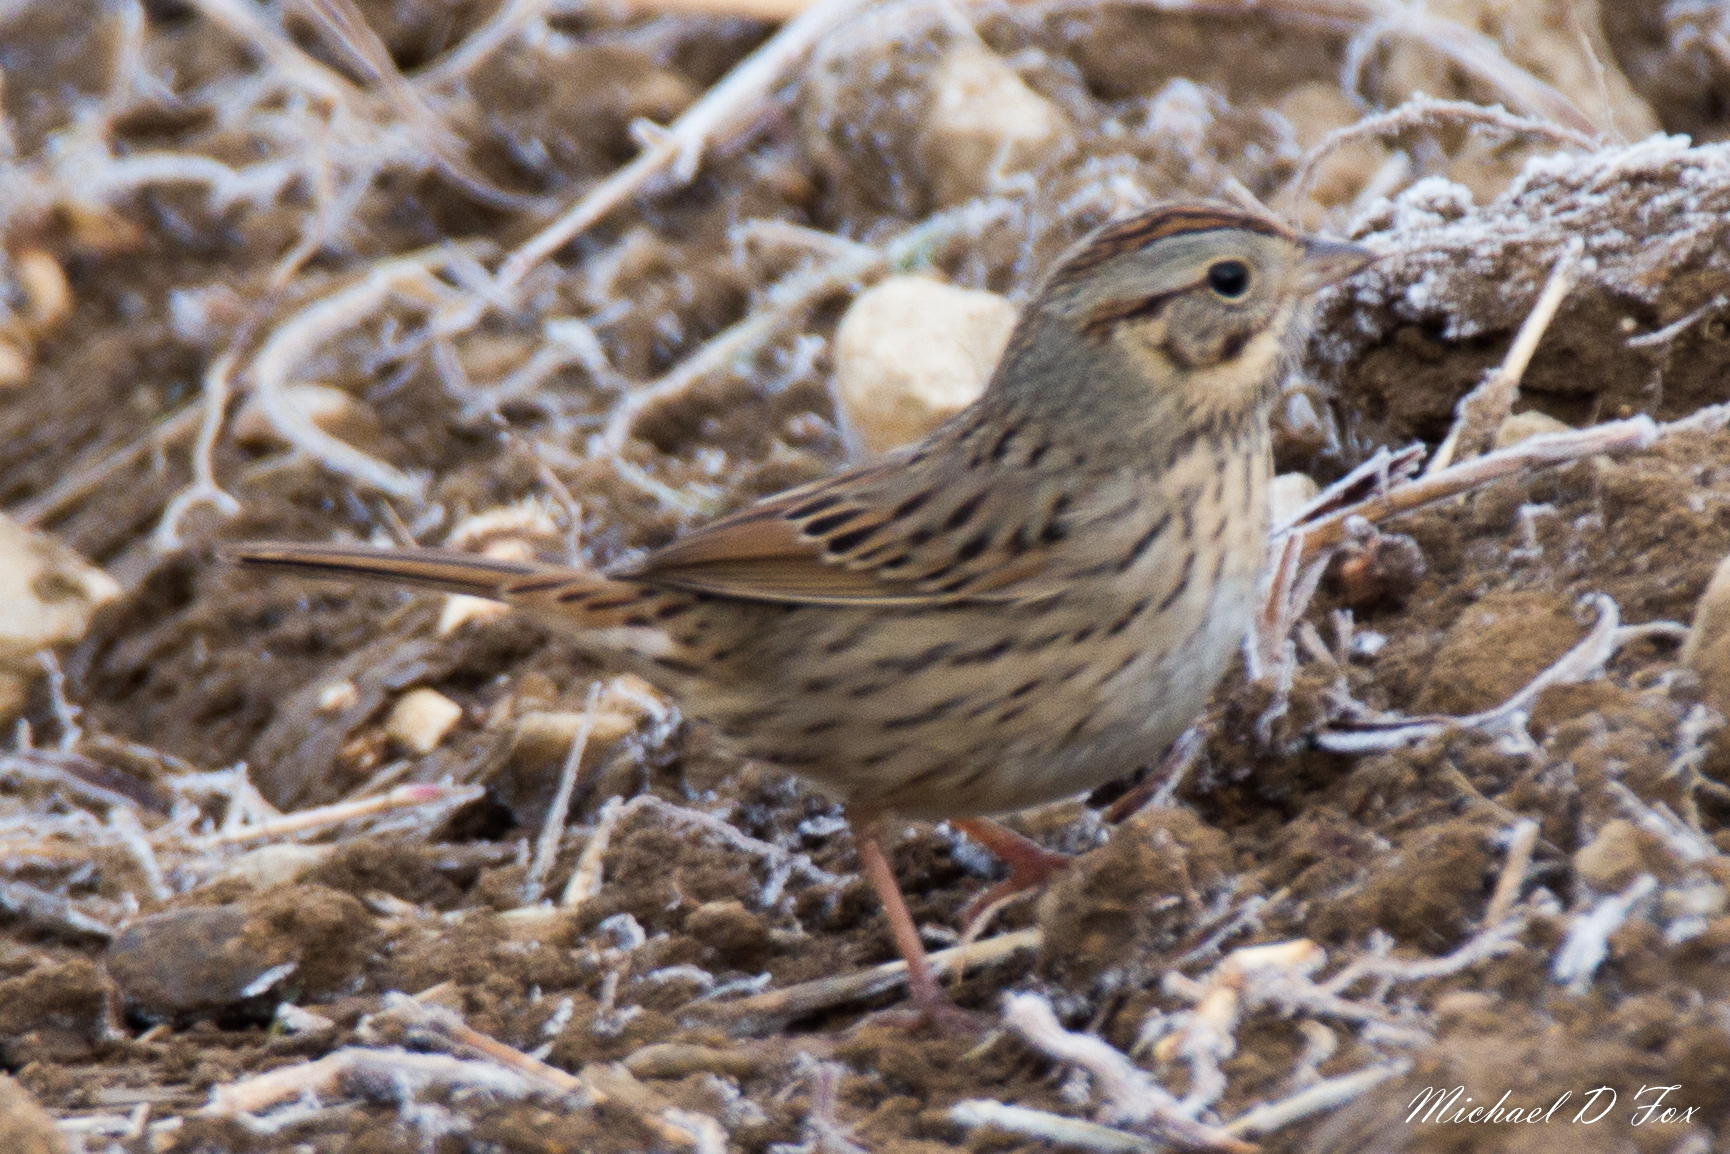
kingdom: Animalia
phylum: Chordata
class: Aves
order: Passeriformes
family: Passerellidae
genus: Melospiza
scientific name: Melospiza lincolnii
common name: Lincoln's sparrow
